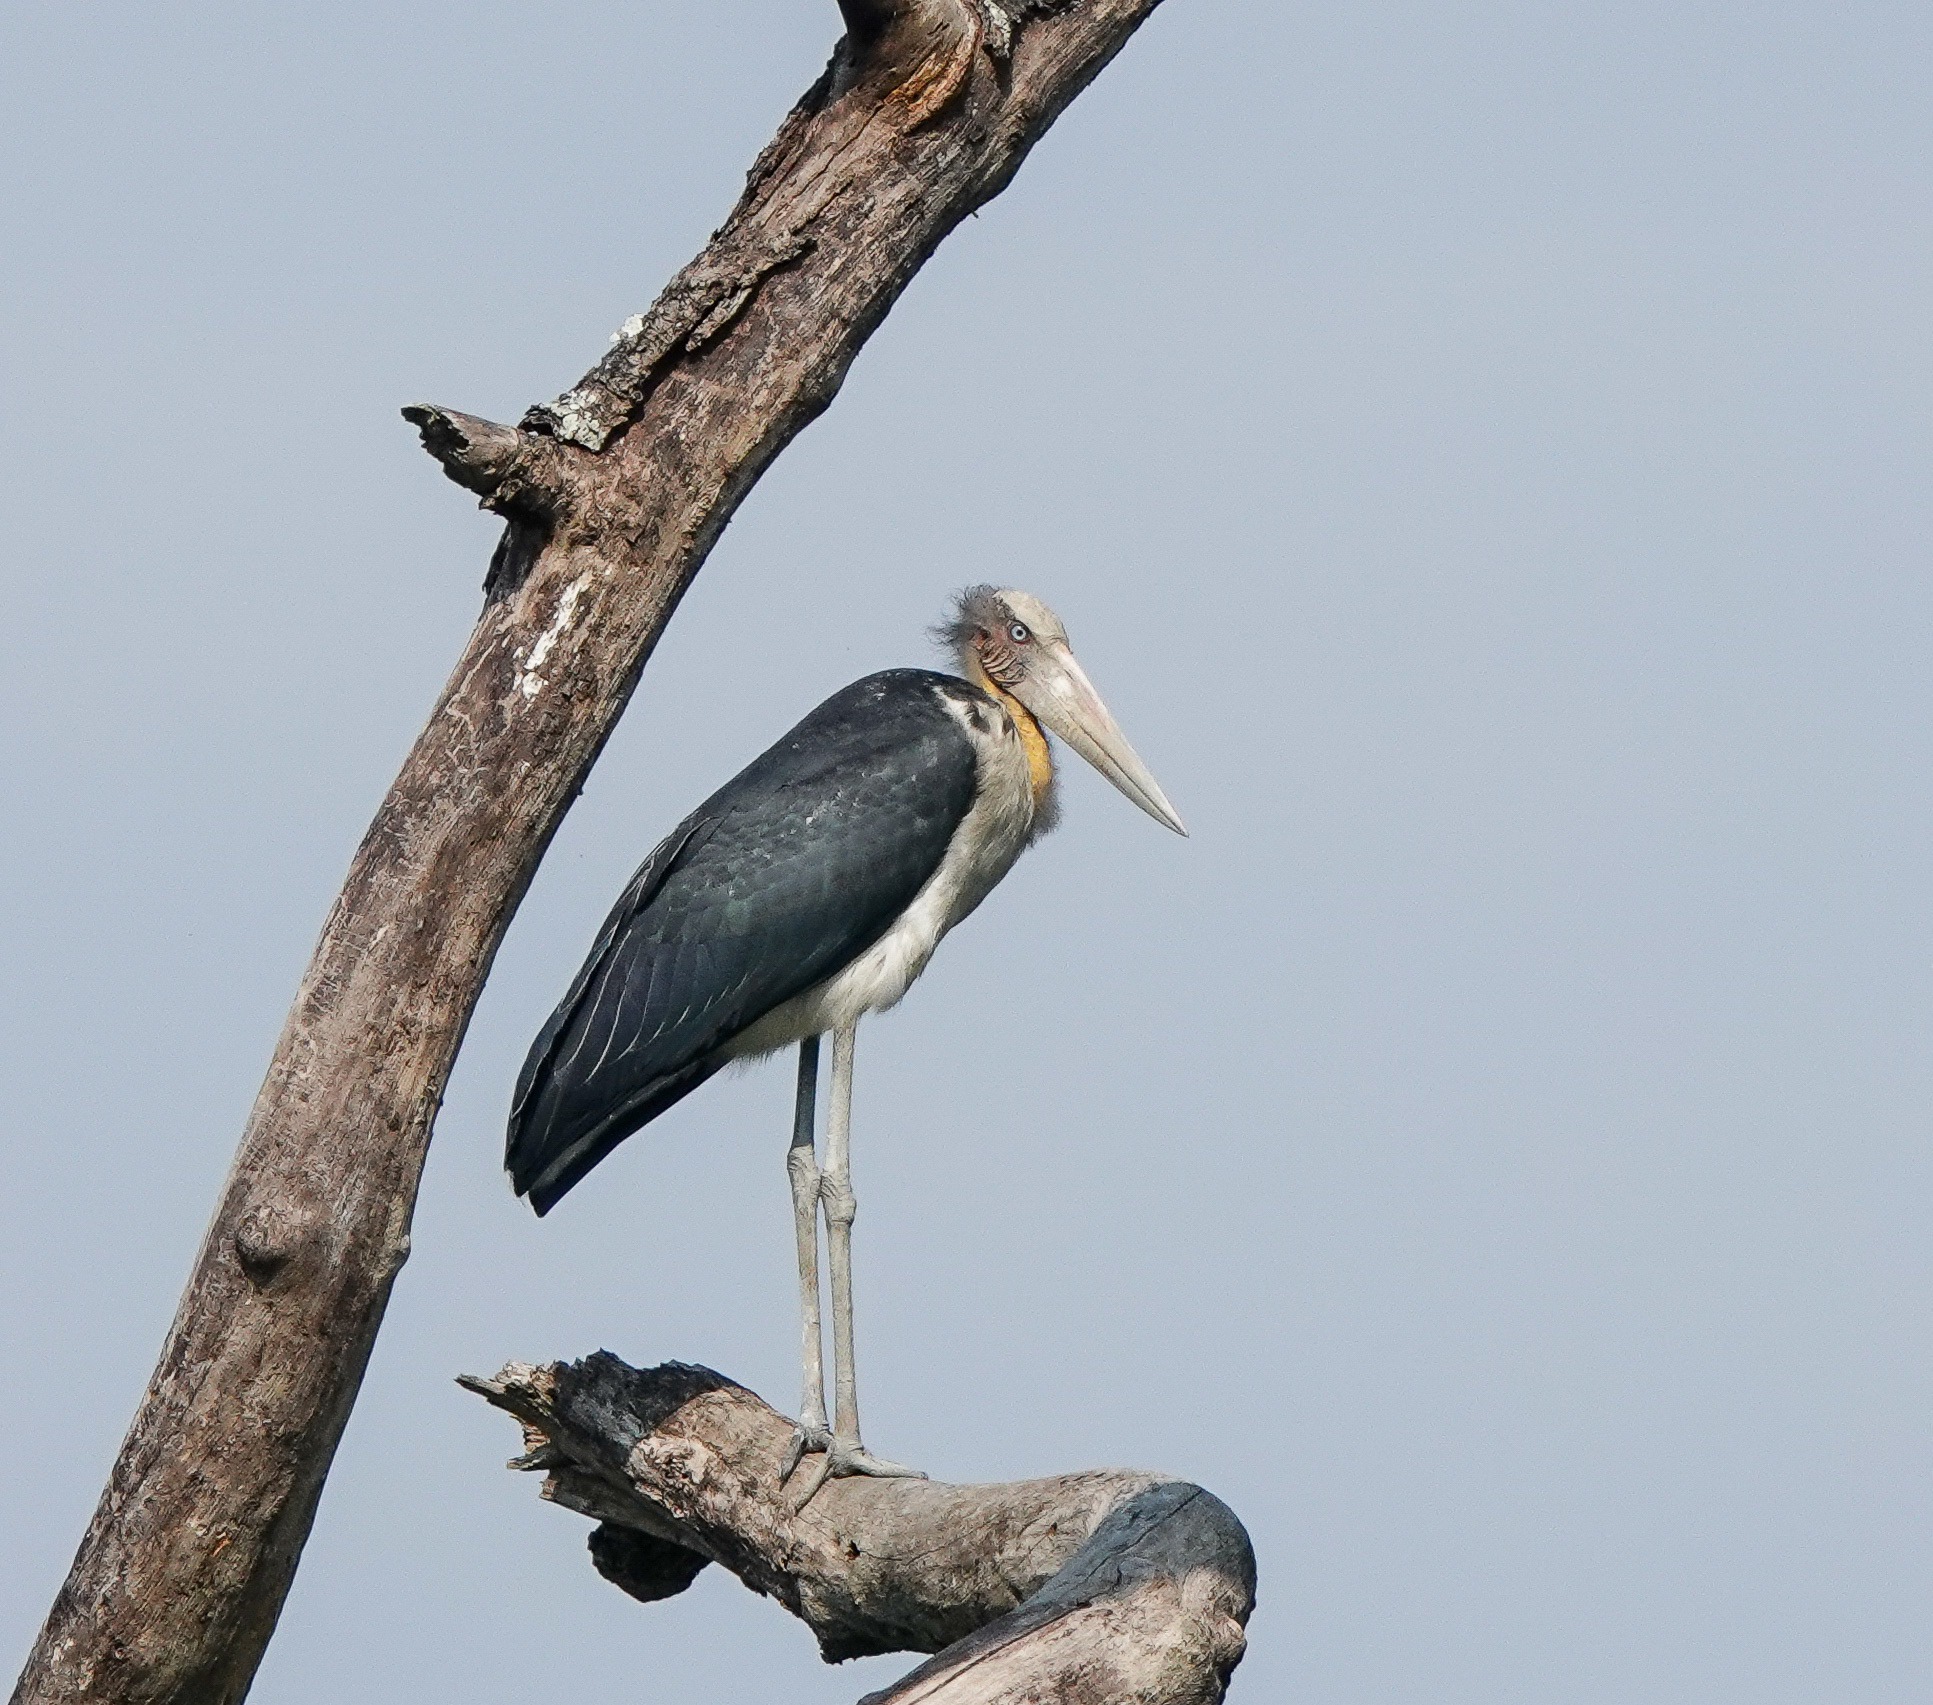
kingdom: Animalia
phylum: Chordata
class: Aves
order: Ciconiiformes
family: Ciconiidae
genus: Leptoptilos
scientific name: Leptoptilos javanicus
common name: Lesser adjutant
